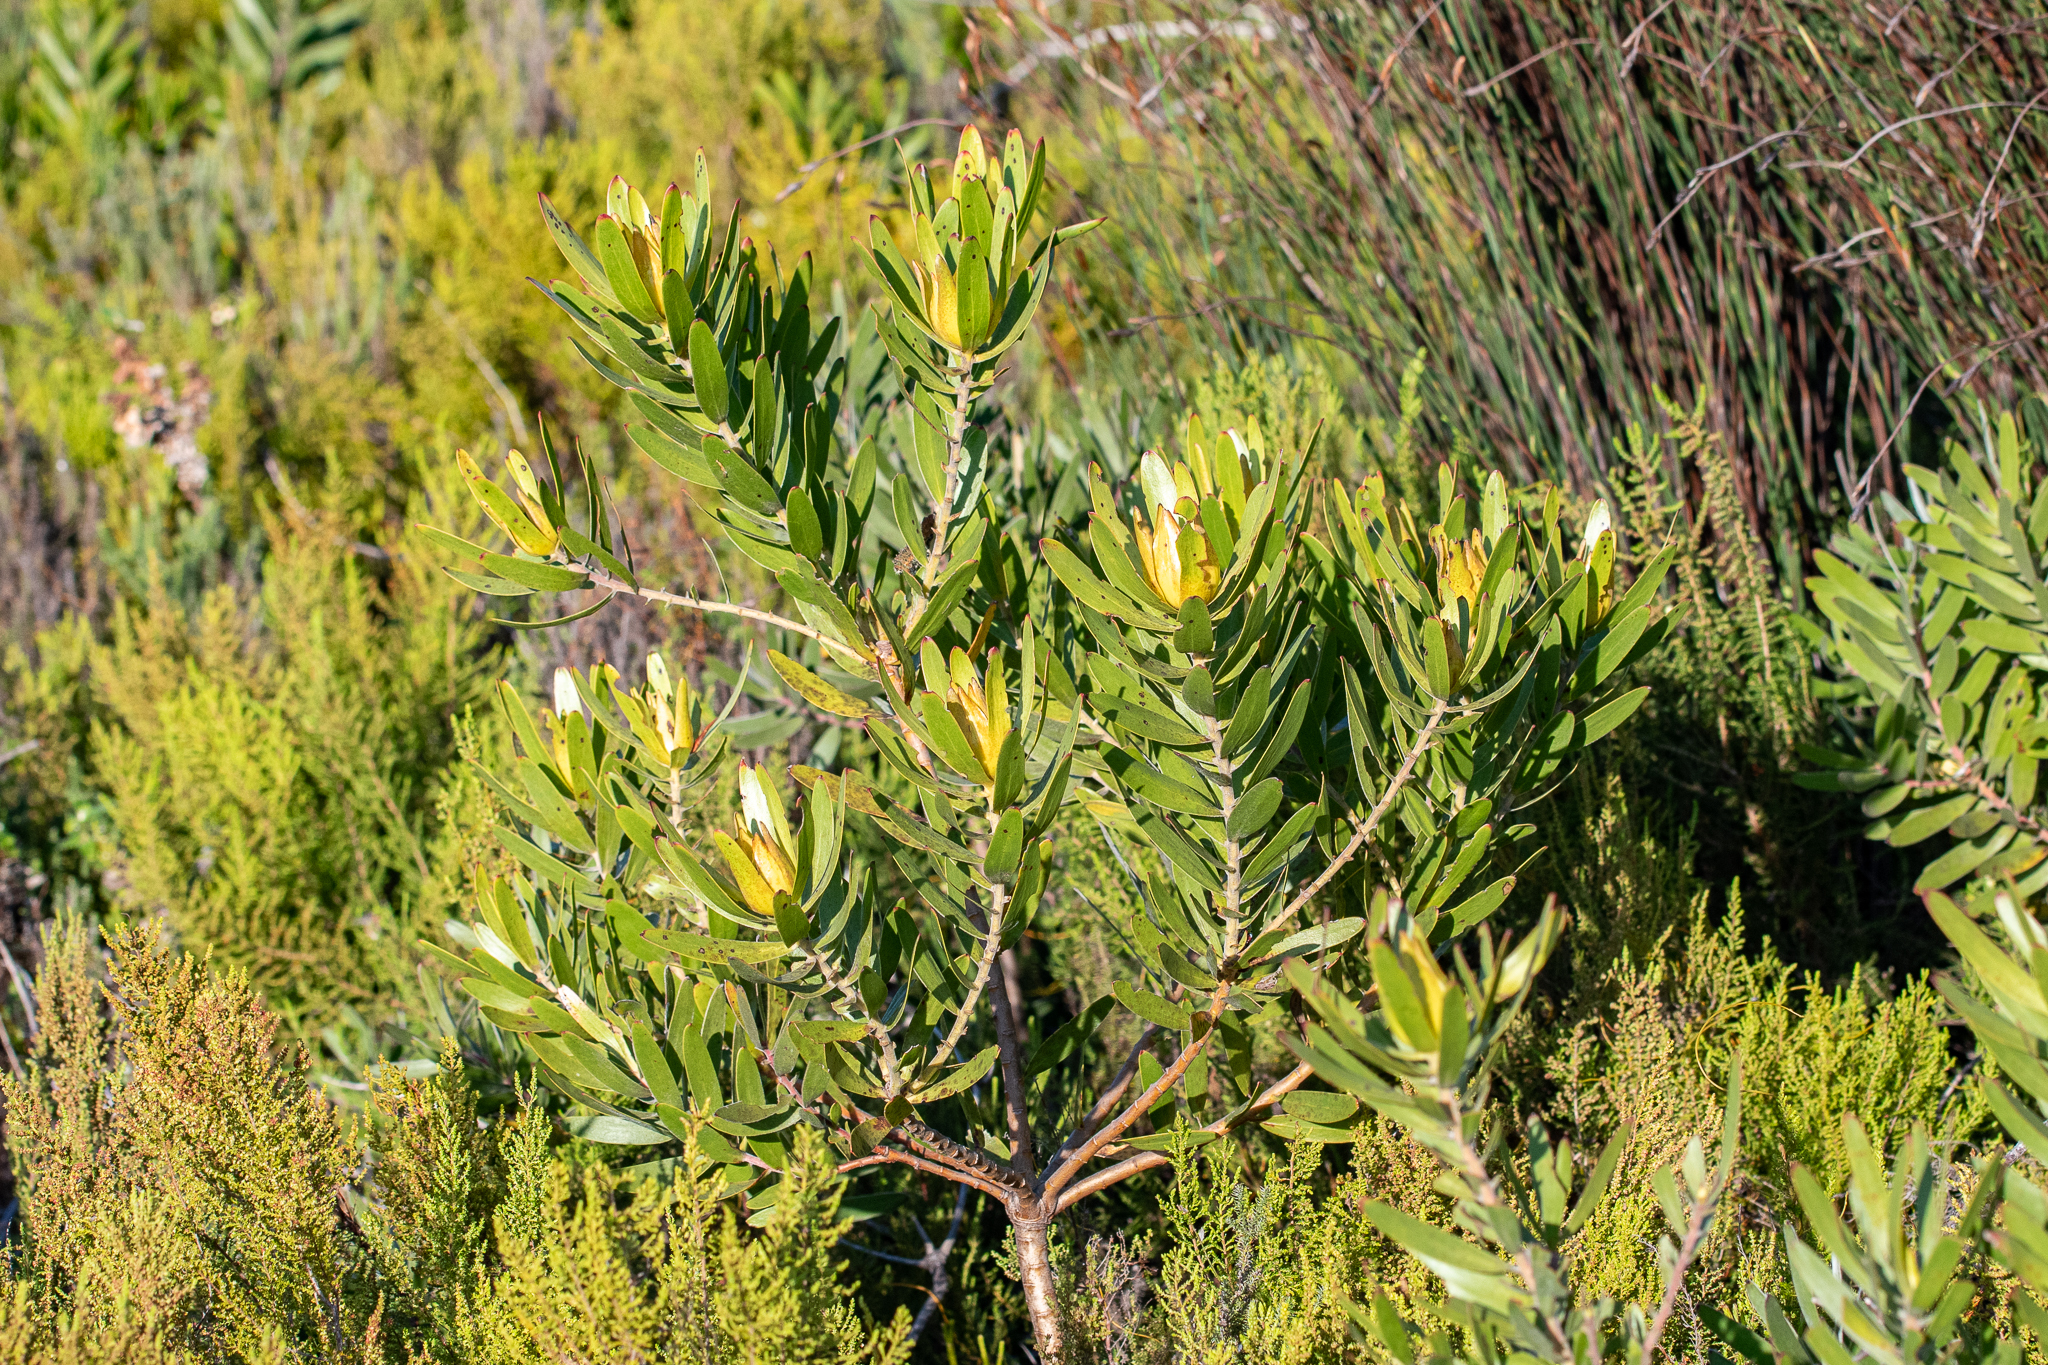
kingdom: Plantae
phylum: Tracheophyta
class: Magnoliopsida
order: Proteales
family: Proteaceae
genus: Leucadendron
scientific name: Leucadendron laureolum
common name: Golden sunshinebush
